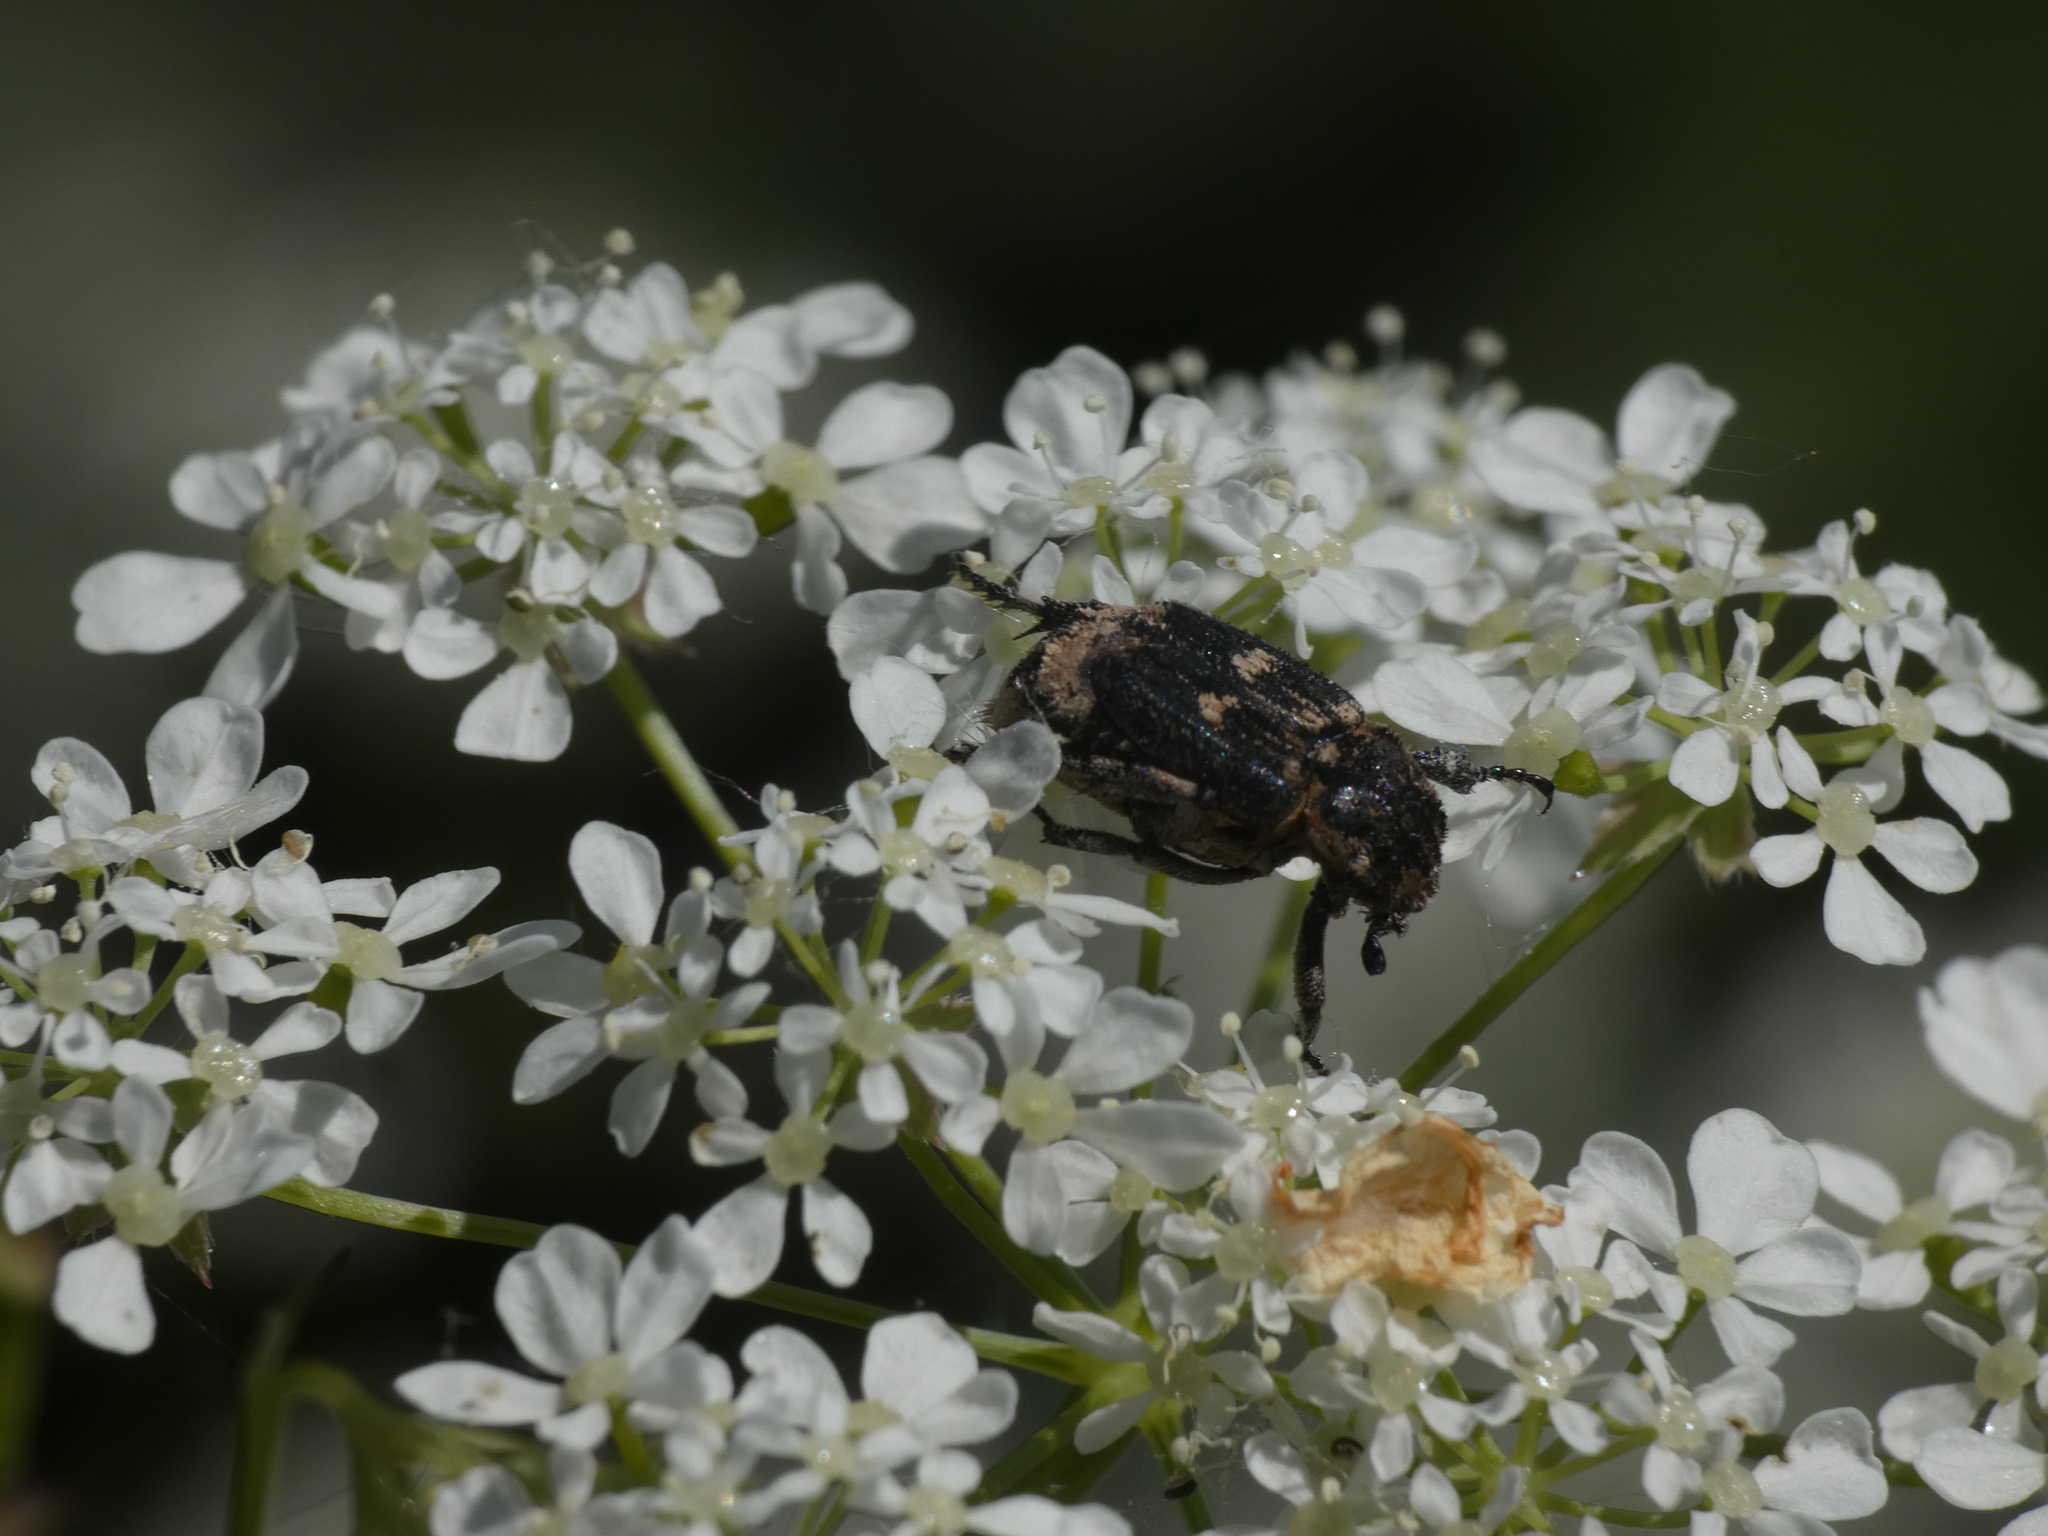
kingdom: Animalia
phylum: Arthropoda
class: Insecta
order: Coleoptera
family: Scarabaeidae
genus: Valgus
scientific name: Valgus hemipterus
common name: Bug flower chafer
